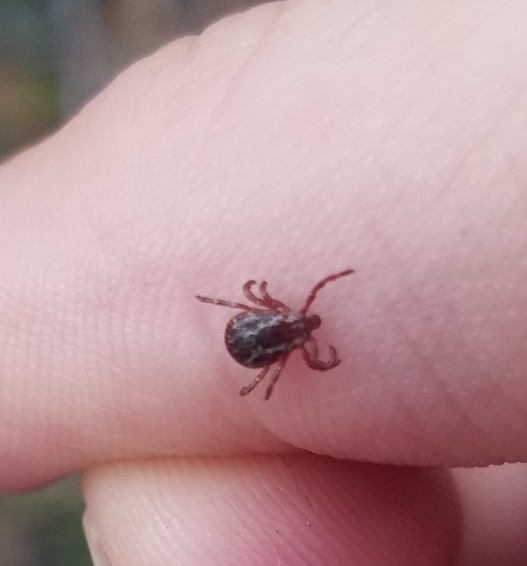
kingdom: Animalia
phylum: Arthropoda
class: Arachnida
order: Ixodida
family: Ixodidae
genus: Dermacentor
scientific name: Dermacentor variabilis
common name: American dog tick
